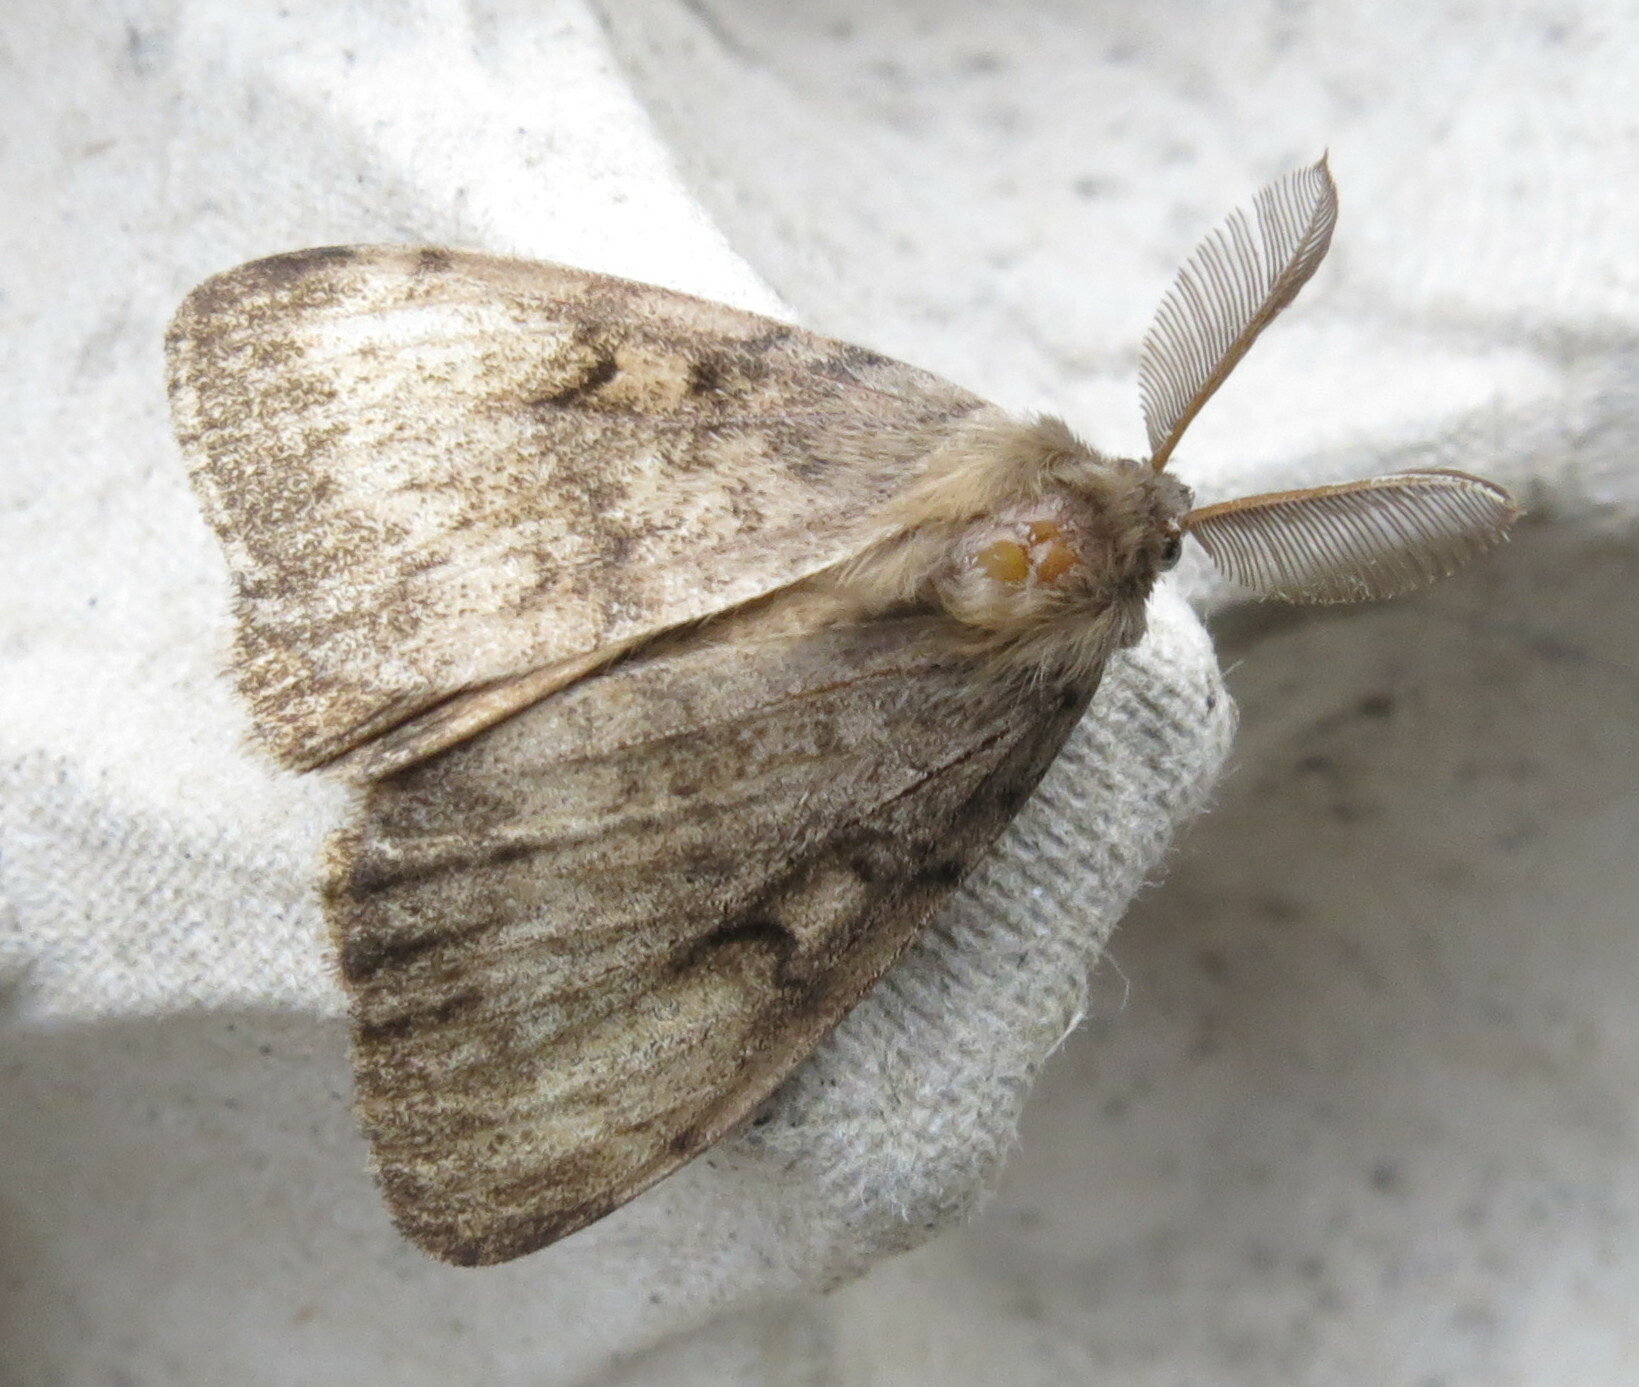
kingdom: Animalia
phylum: Arthropoda
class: Insecta
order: Lepidoptera
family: Erebidae
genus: Lymantria
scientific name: Lymantria dispar
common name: Gypsy moth
